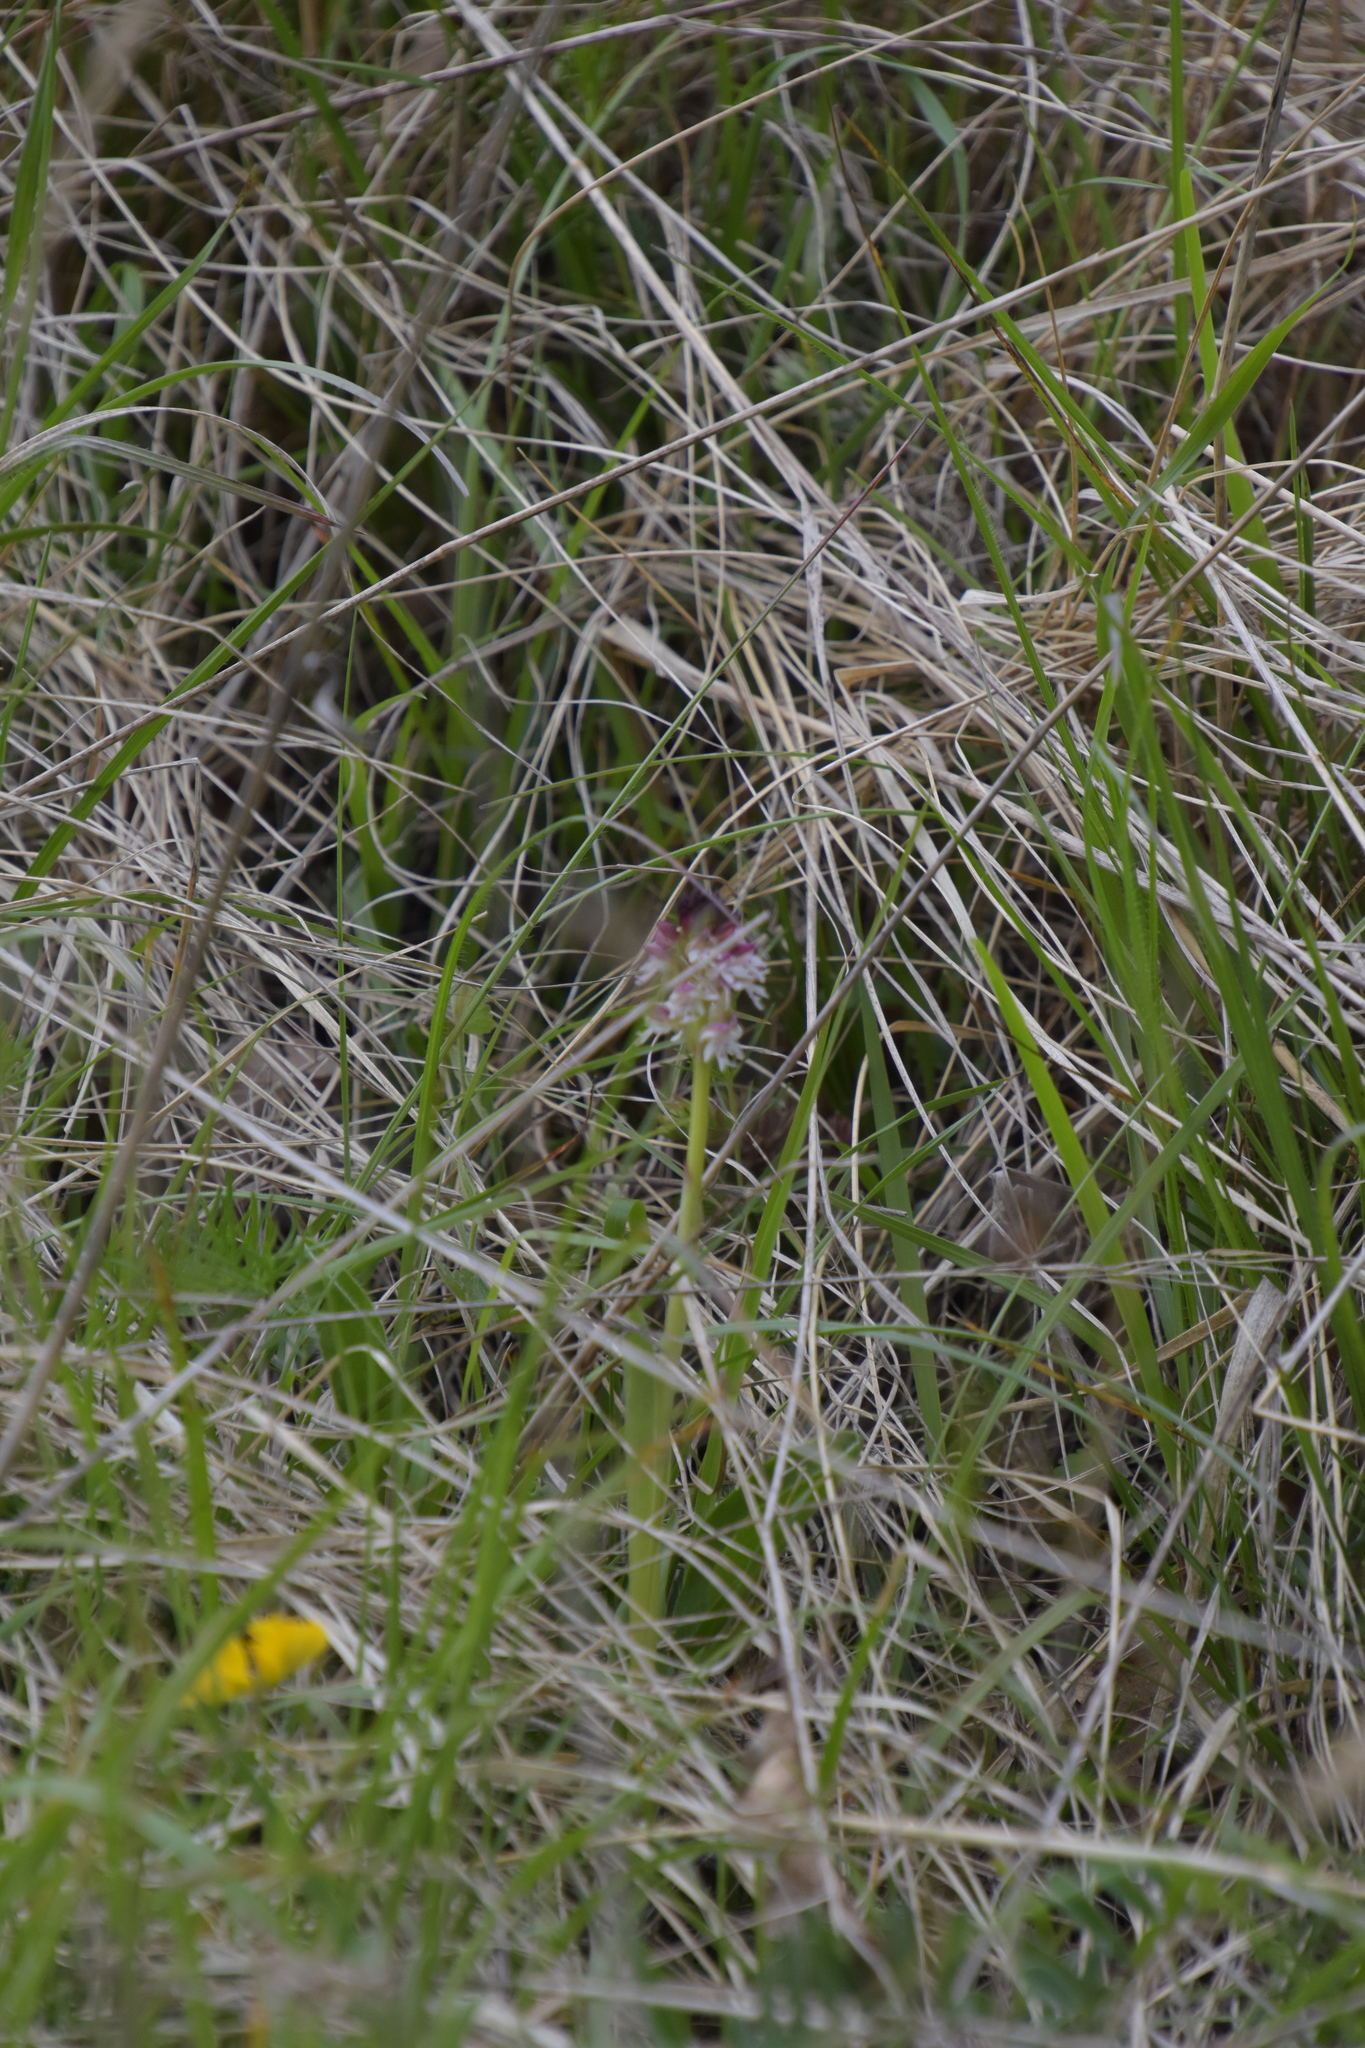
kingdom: Plantae
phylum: Tracheophyta
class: Liliopsida
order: Asparagales
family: Orchidaceae
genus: Neotinea
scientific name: Neotinea ustulata
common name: Burnt orchid
